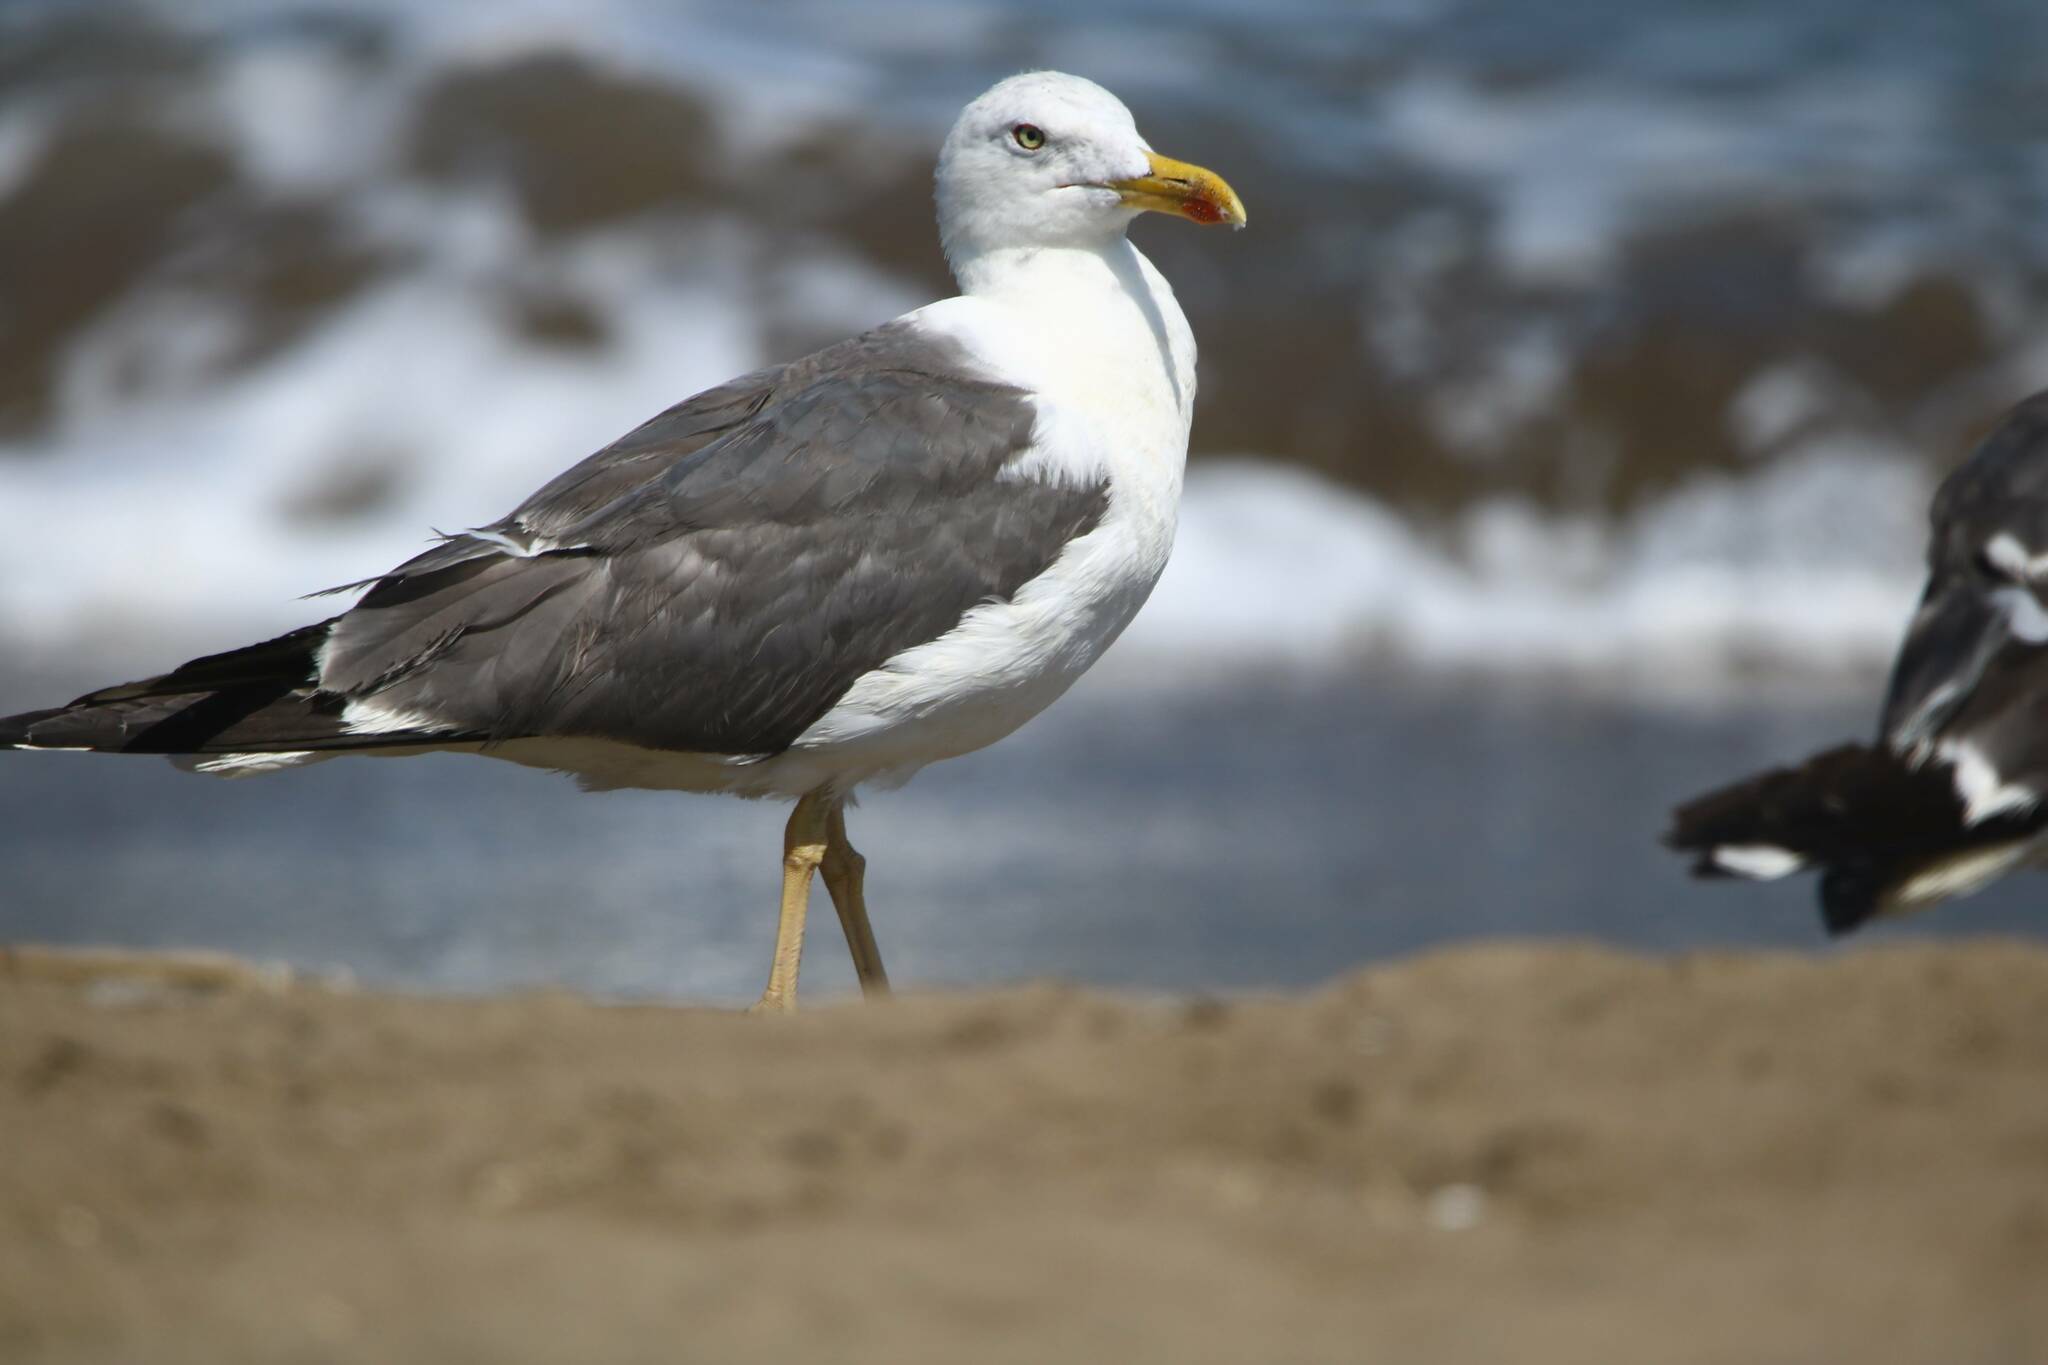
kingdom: Animalia
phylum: Chordata
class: Aves
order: Charadriiformes
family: Laridae
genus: Larus
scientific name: Larus fuscus
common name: Lesser black-backed gull
